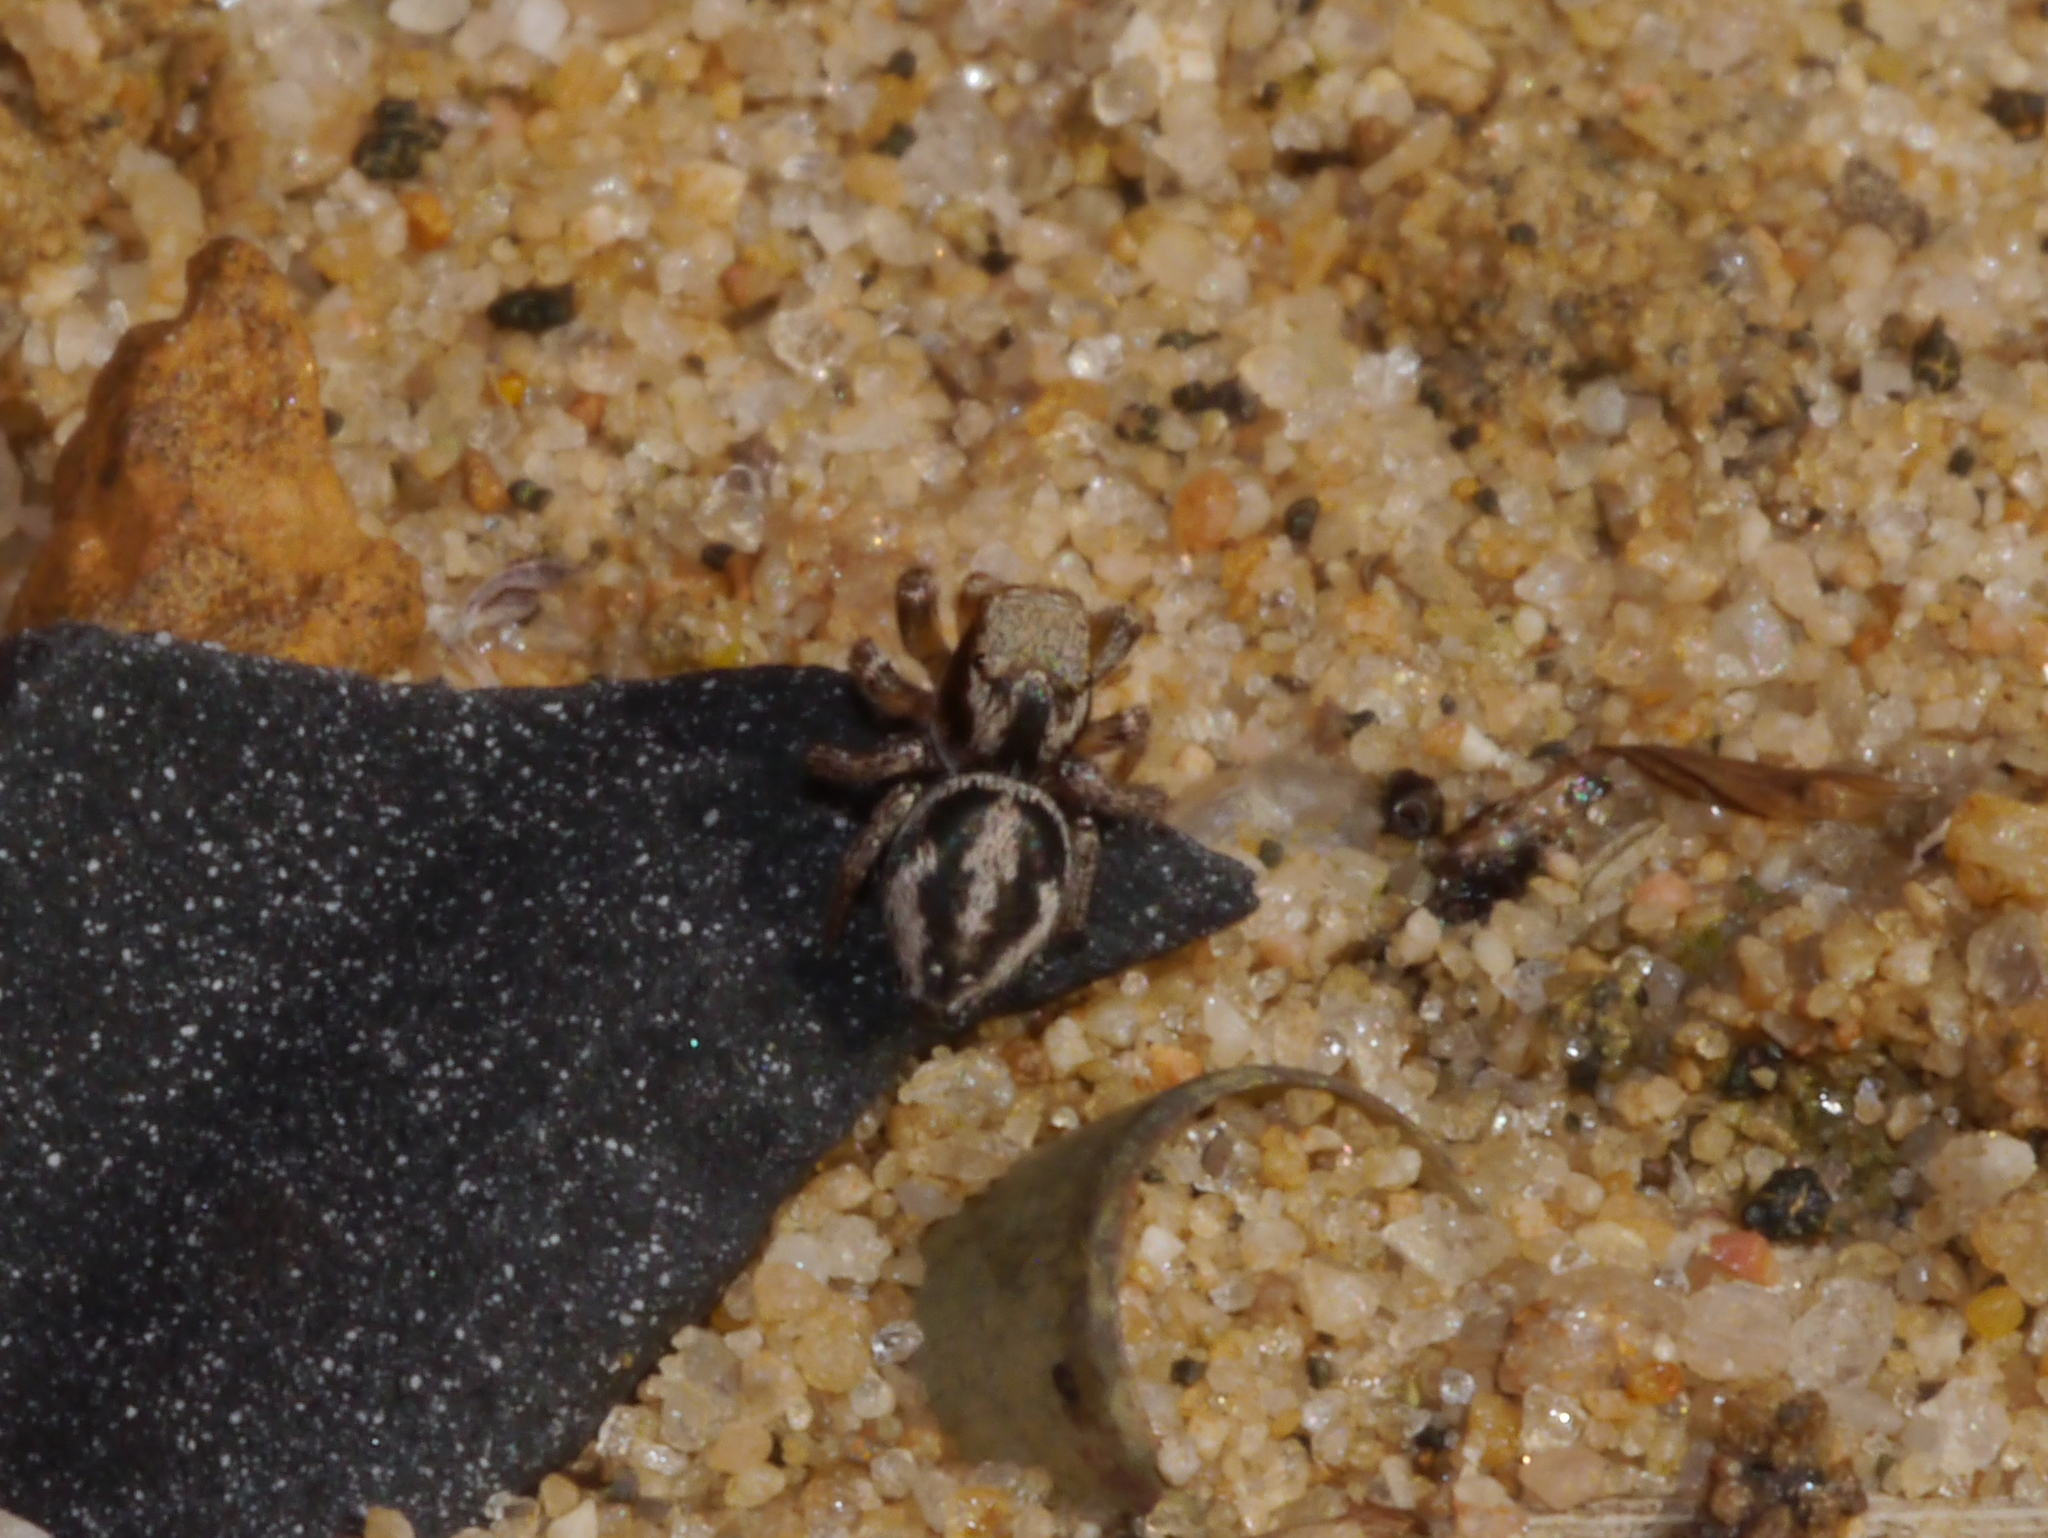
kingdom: Animalia
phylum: Arthropoda
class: Arachnida
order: Araneae
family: Salticidae
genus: Habronattus
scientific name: Habronattus viridipes
